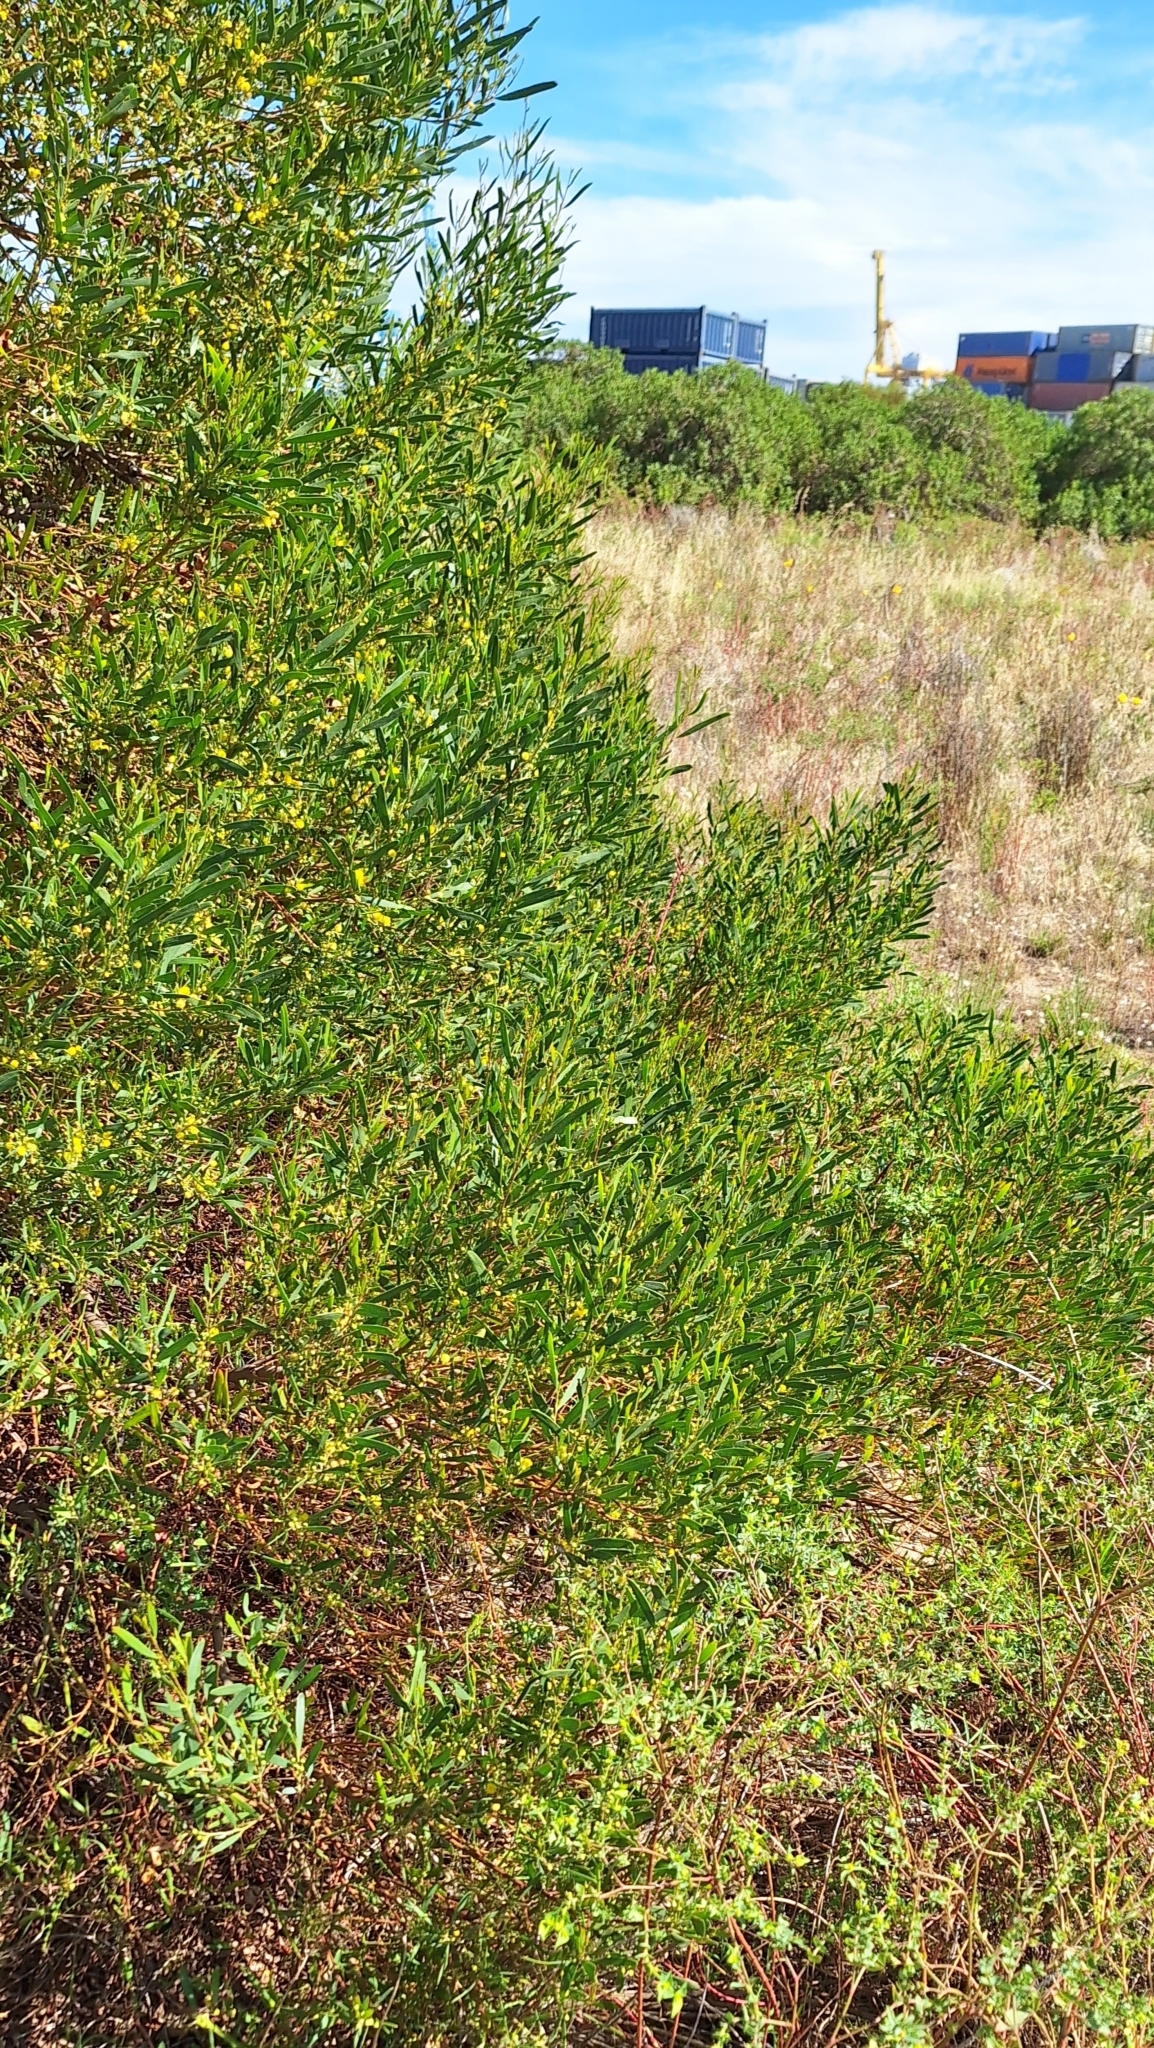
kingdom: Plantae
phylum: Tracheophyta
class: Magnoliopsida
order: Fabales
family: Fabaceae
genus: Acacia
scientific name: Acacia cyclops
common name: Coastal wattle
